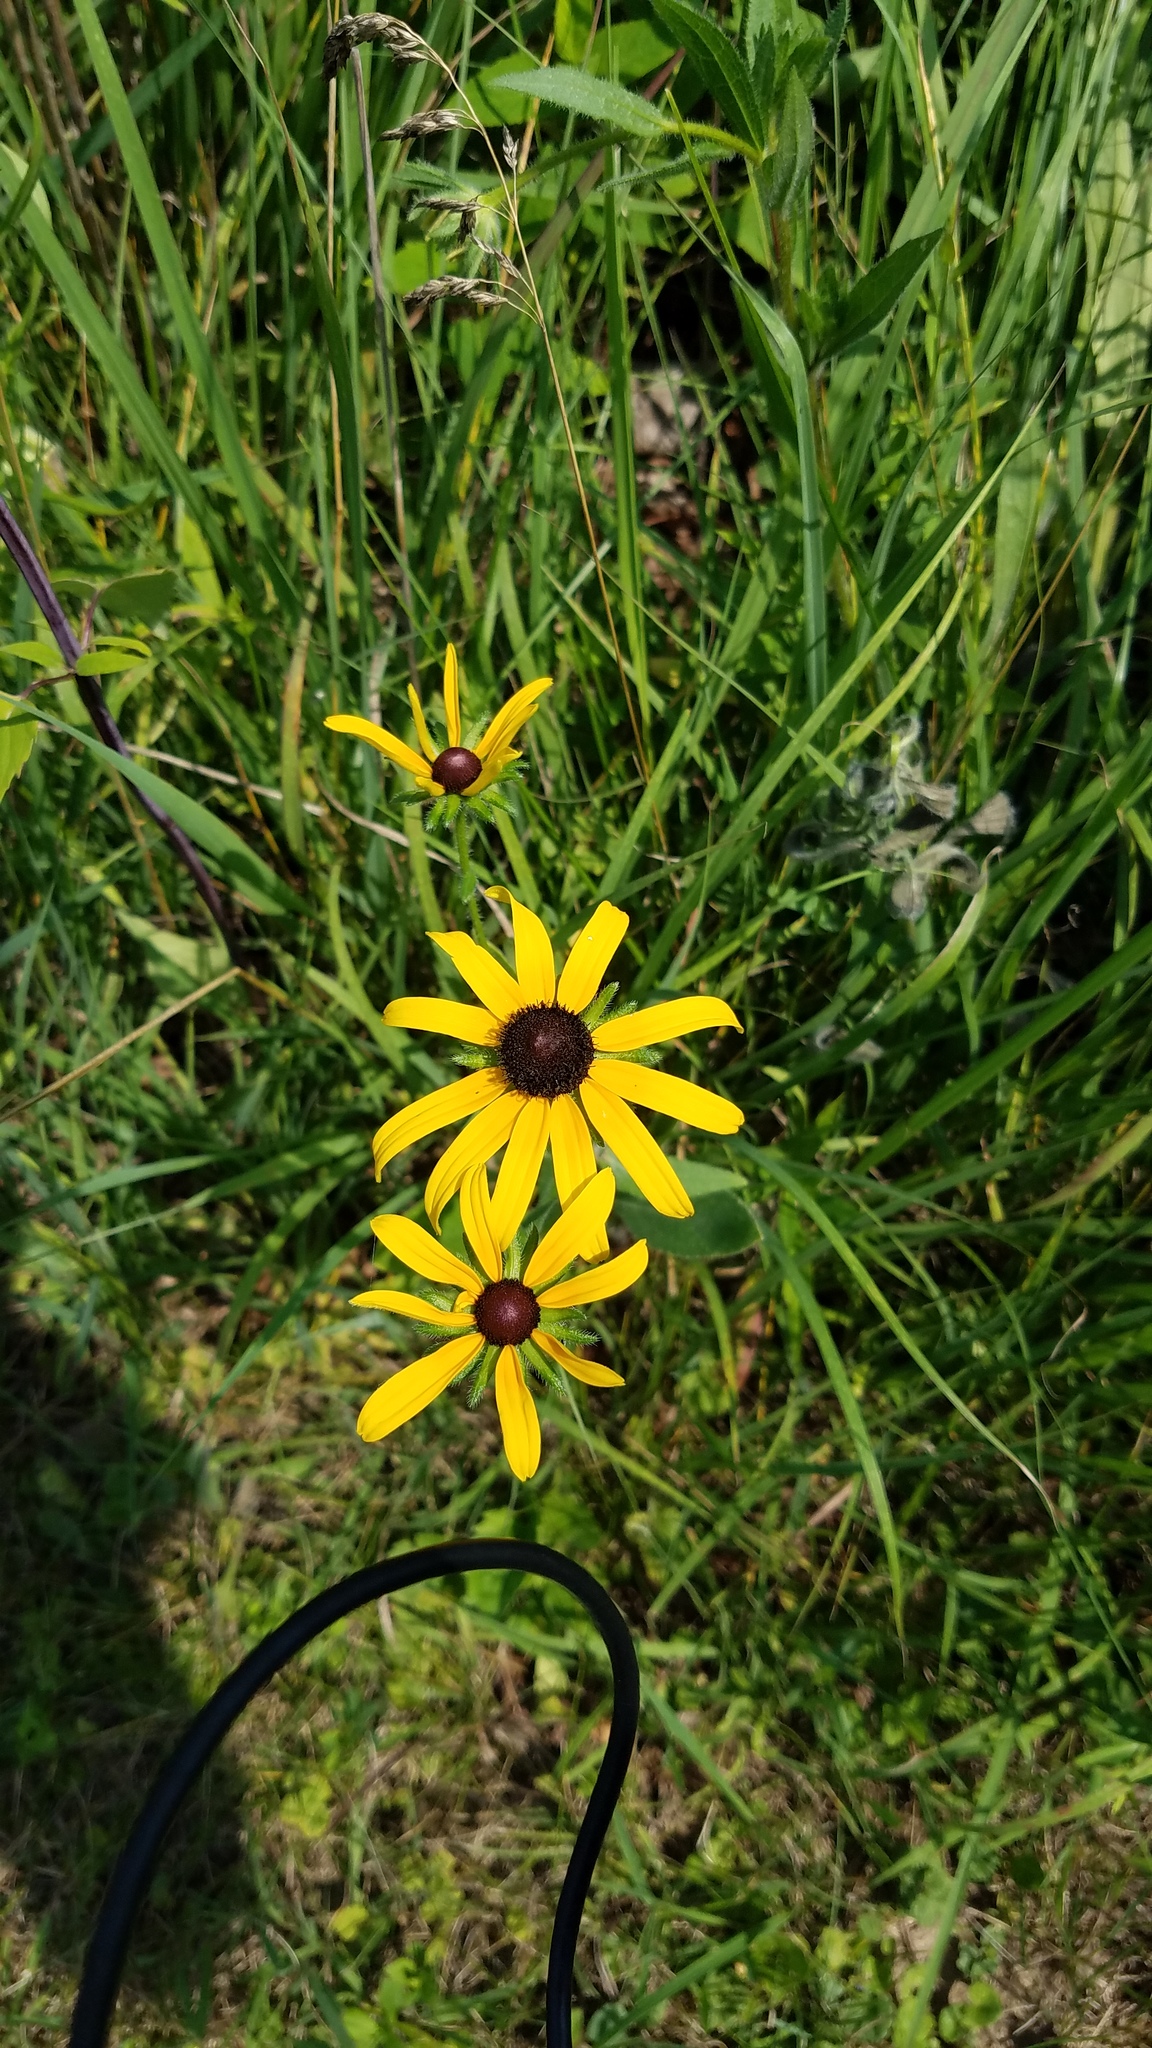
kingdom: Plantae
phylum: Tracheophyta
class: Magnoliopsida
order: Asterales
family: Asteraceae
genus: Rudbeckia
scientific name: Rudbeckia hirta
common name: Black-eyed-susan
